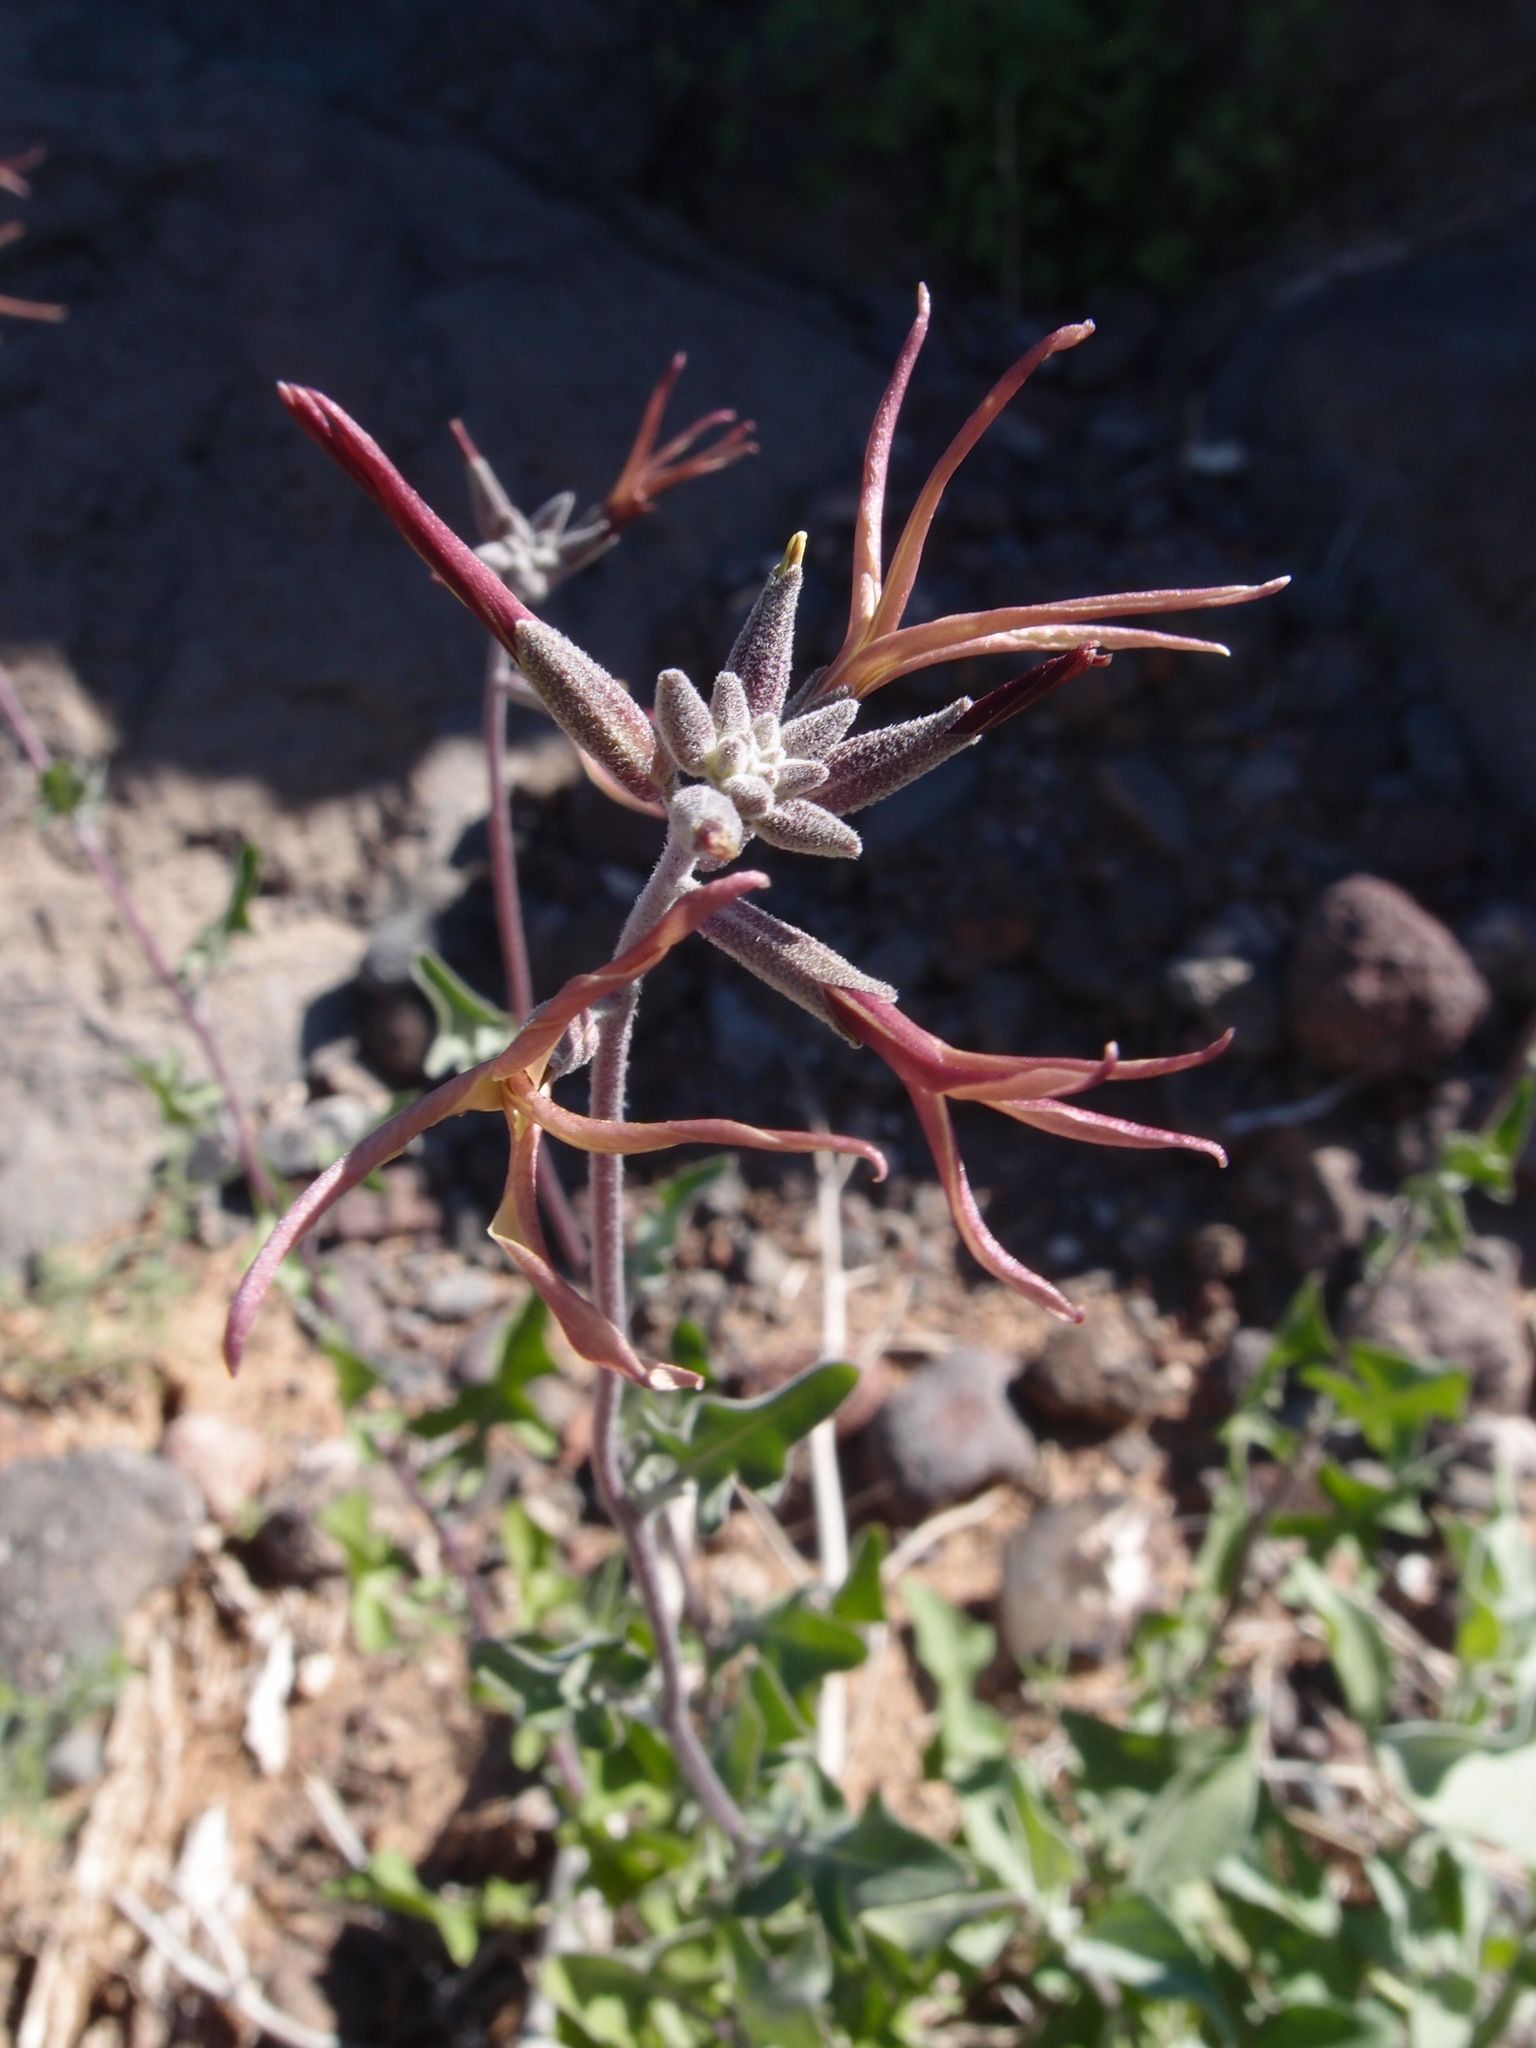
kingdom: Plantae
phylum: Tracheophyta
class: Magnoliopsida
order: Brassicales
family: Brassicaceae
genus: Lyrocarpa
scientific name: Lyrocarpa coulteri
